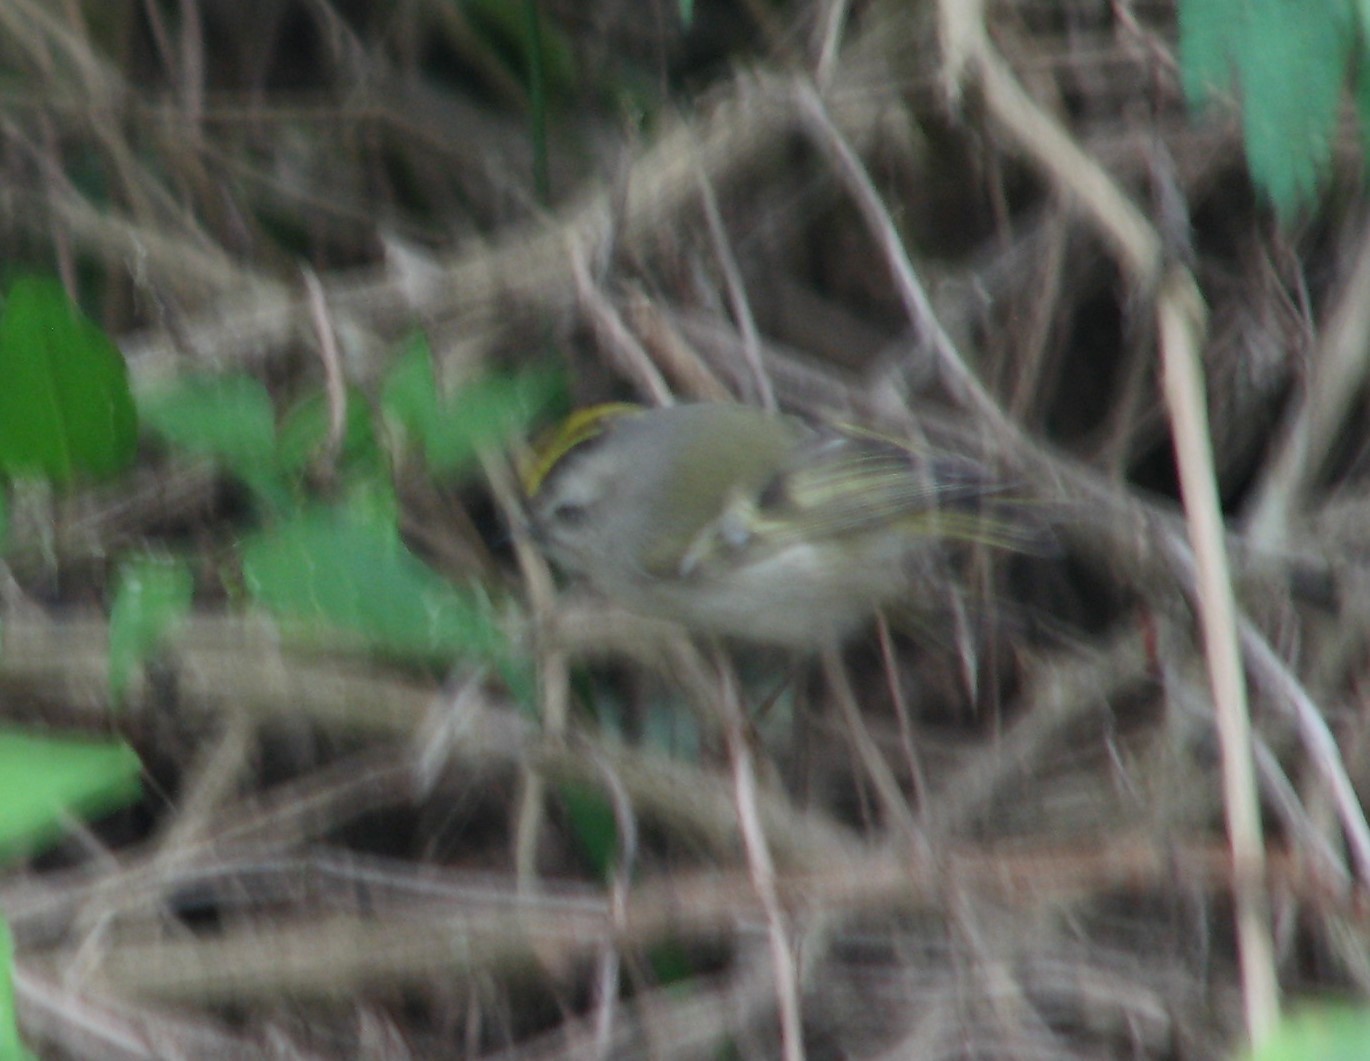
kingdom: Animalia
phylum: Chordata
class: Aves
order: Passeriformes
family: Regulidae
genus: Regulus
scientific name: Regulus satrapa
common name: Golden-crowned kinglet
